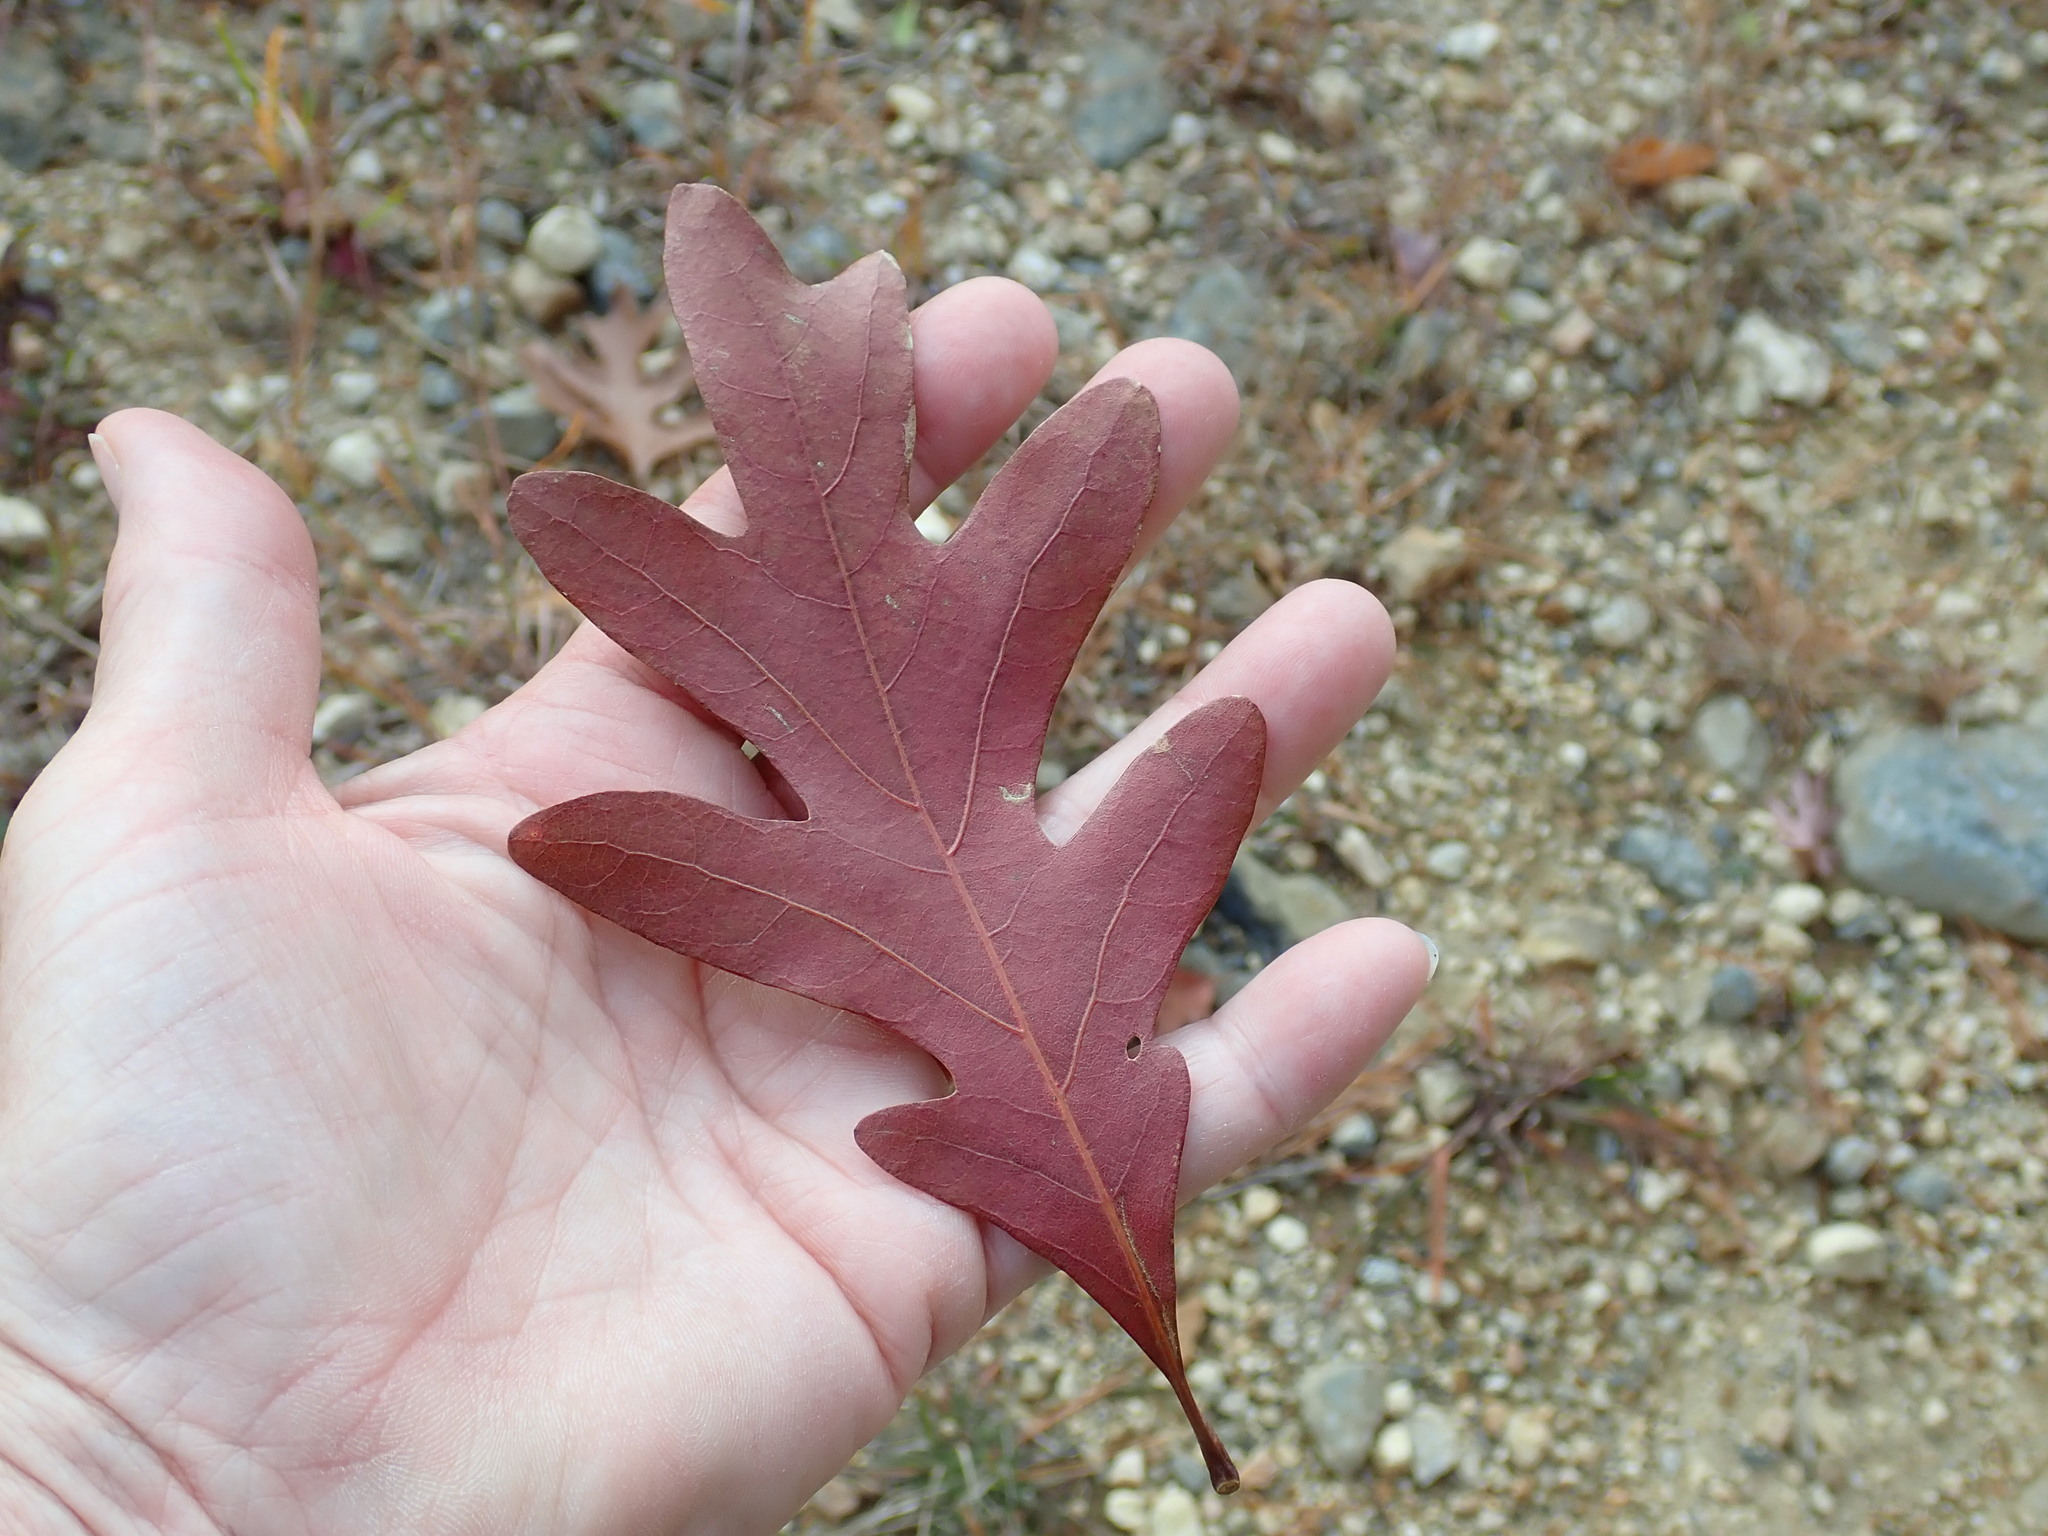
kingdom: Plantae
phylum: Tracheophyta
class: Magnoliopsida
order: Fagales
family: Fagaceae
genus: Quercus
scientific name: Quercus alba
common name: White oak
